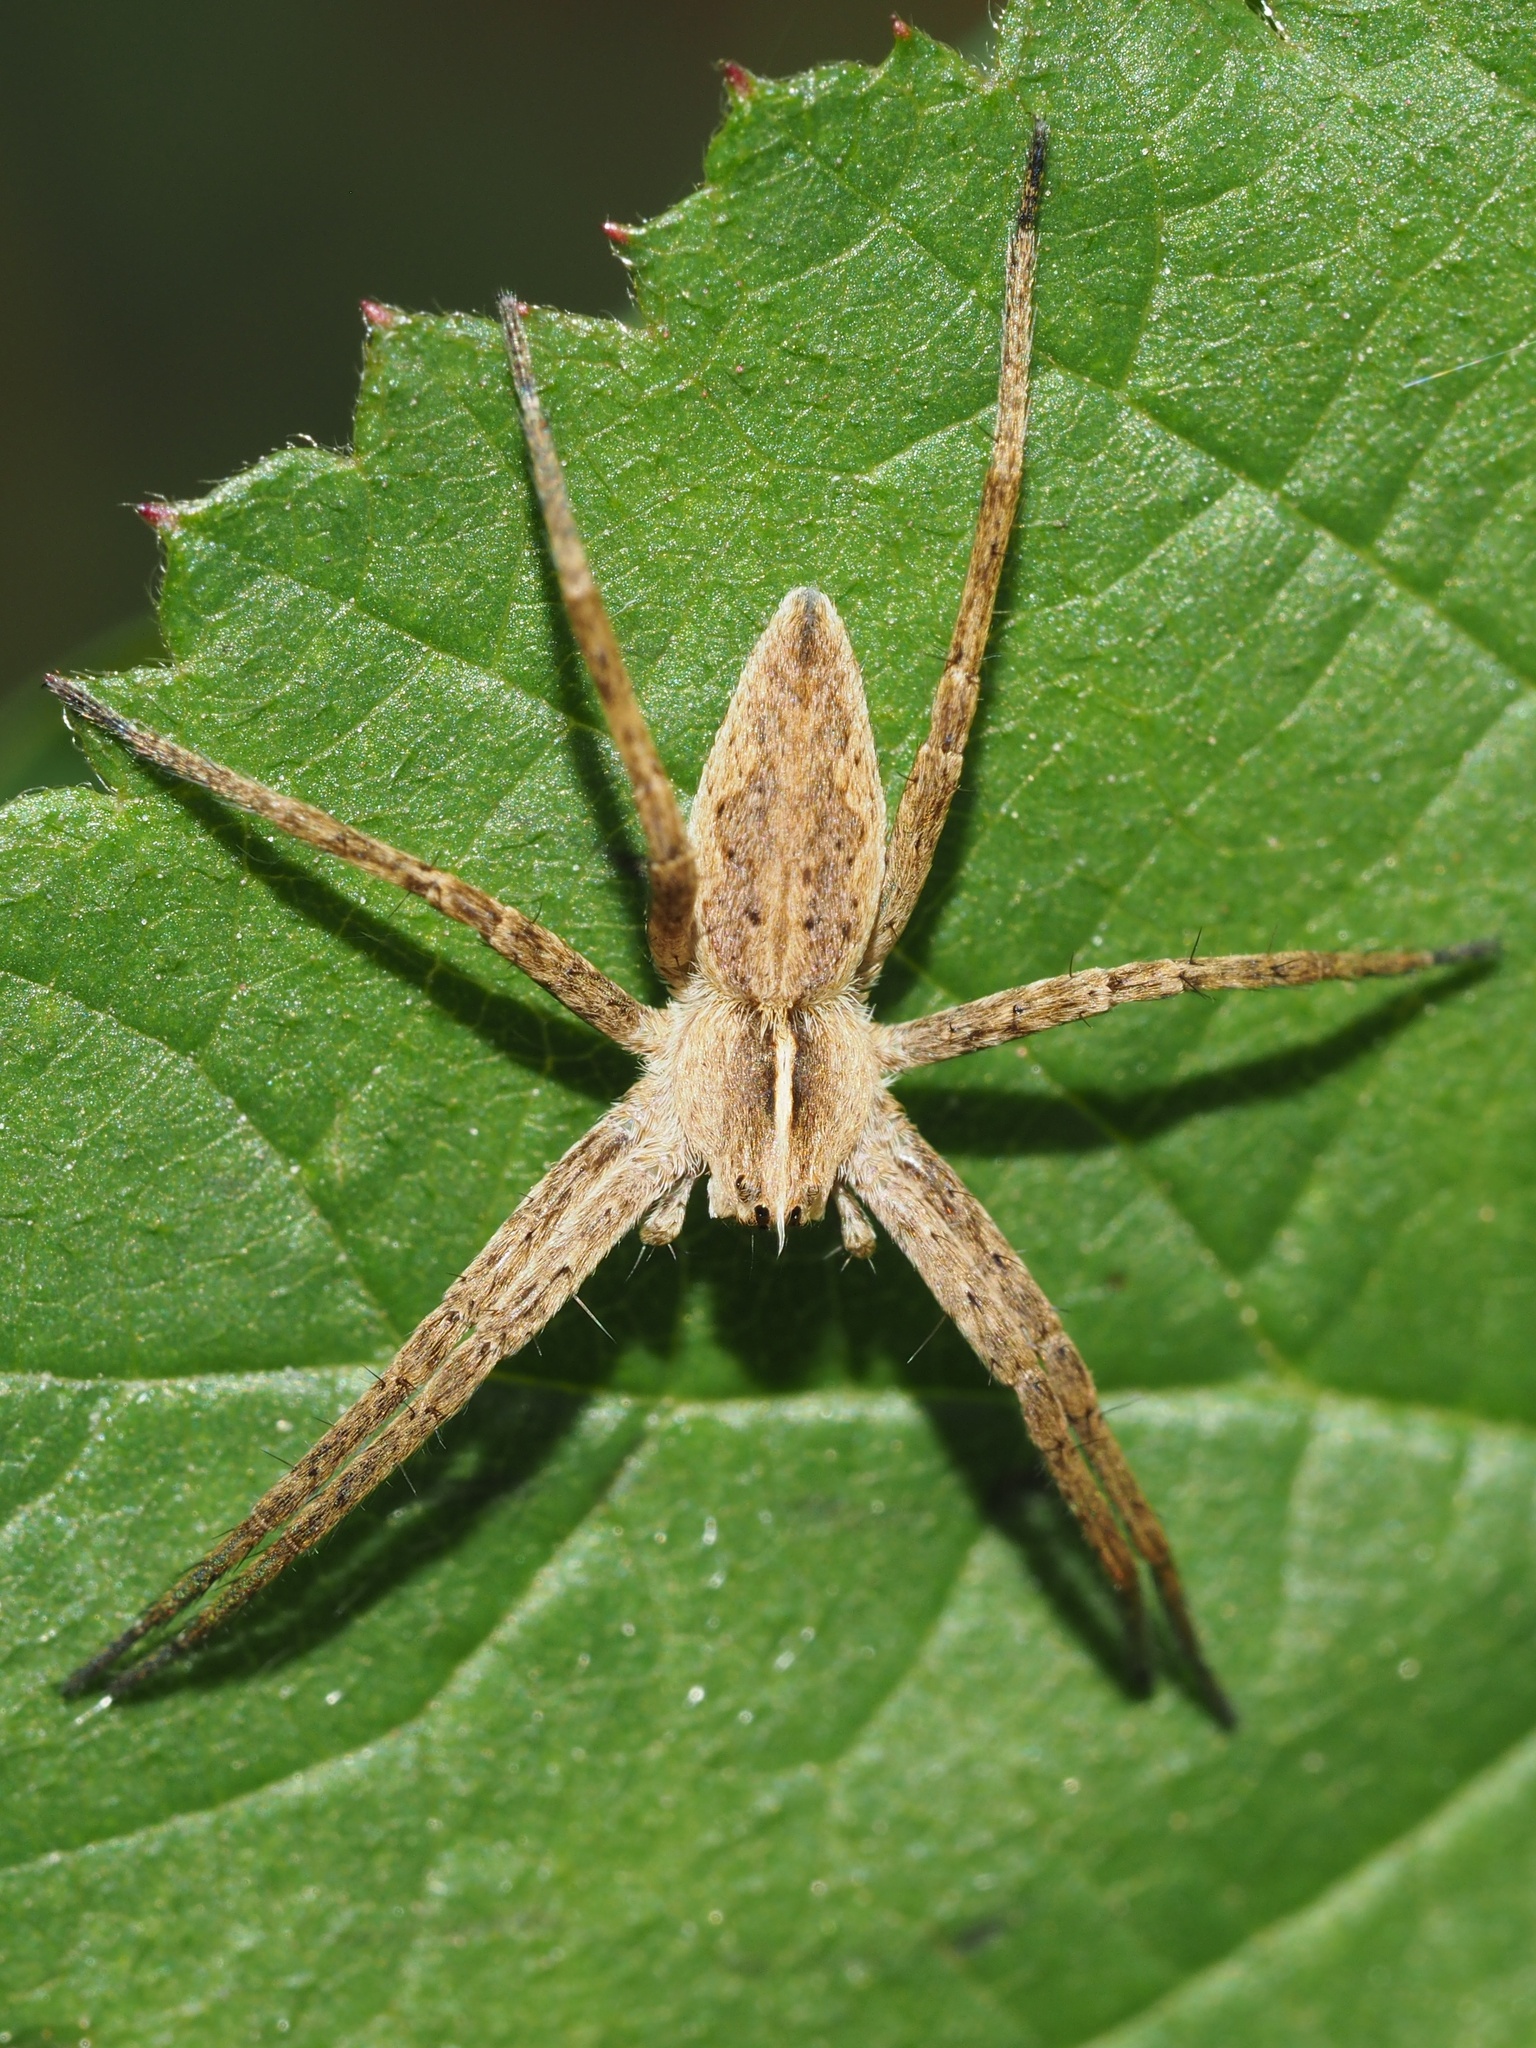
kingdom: Animalia
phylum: Arthropoda
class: Arachnida
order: Araneae
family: Pisauridae
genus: Pisaura
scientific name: Pisaura mirabilis
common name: Tent spider
